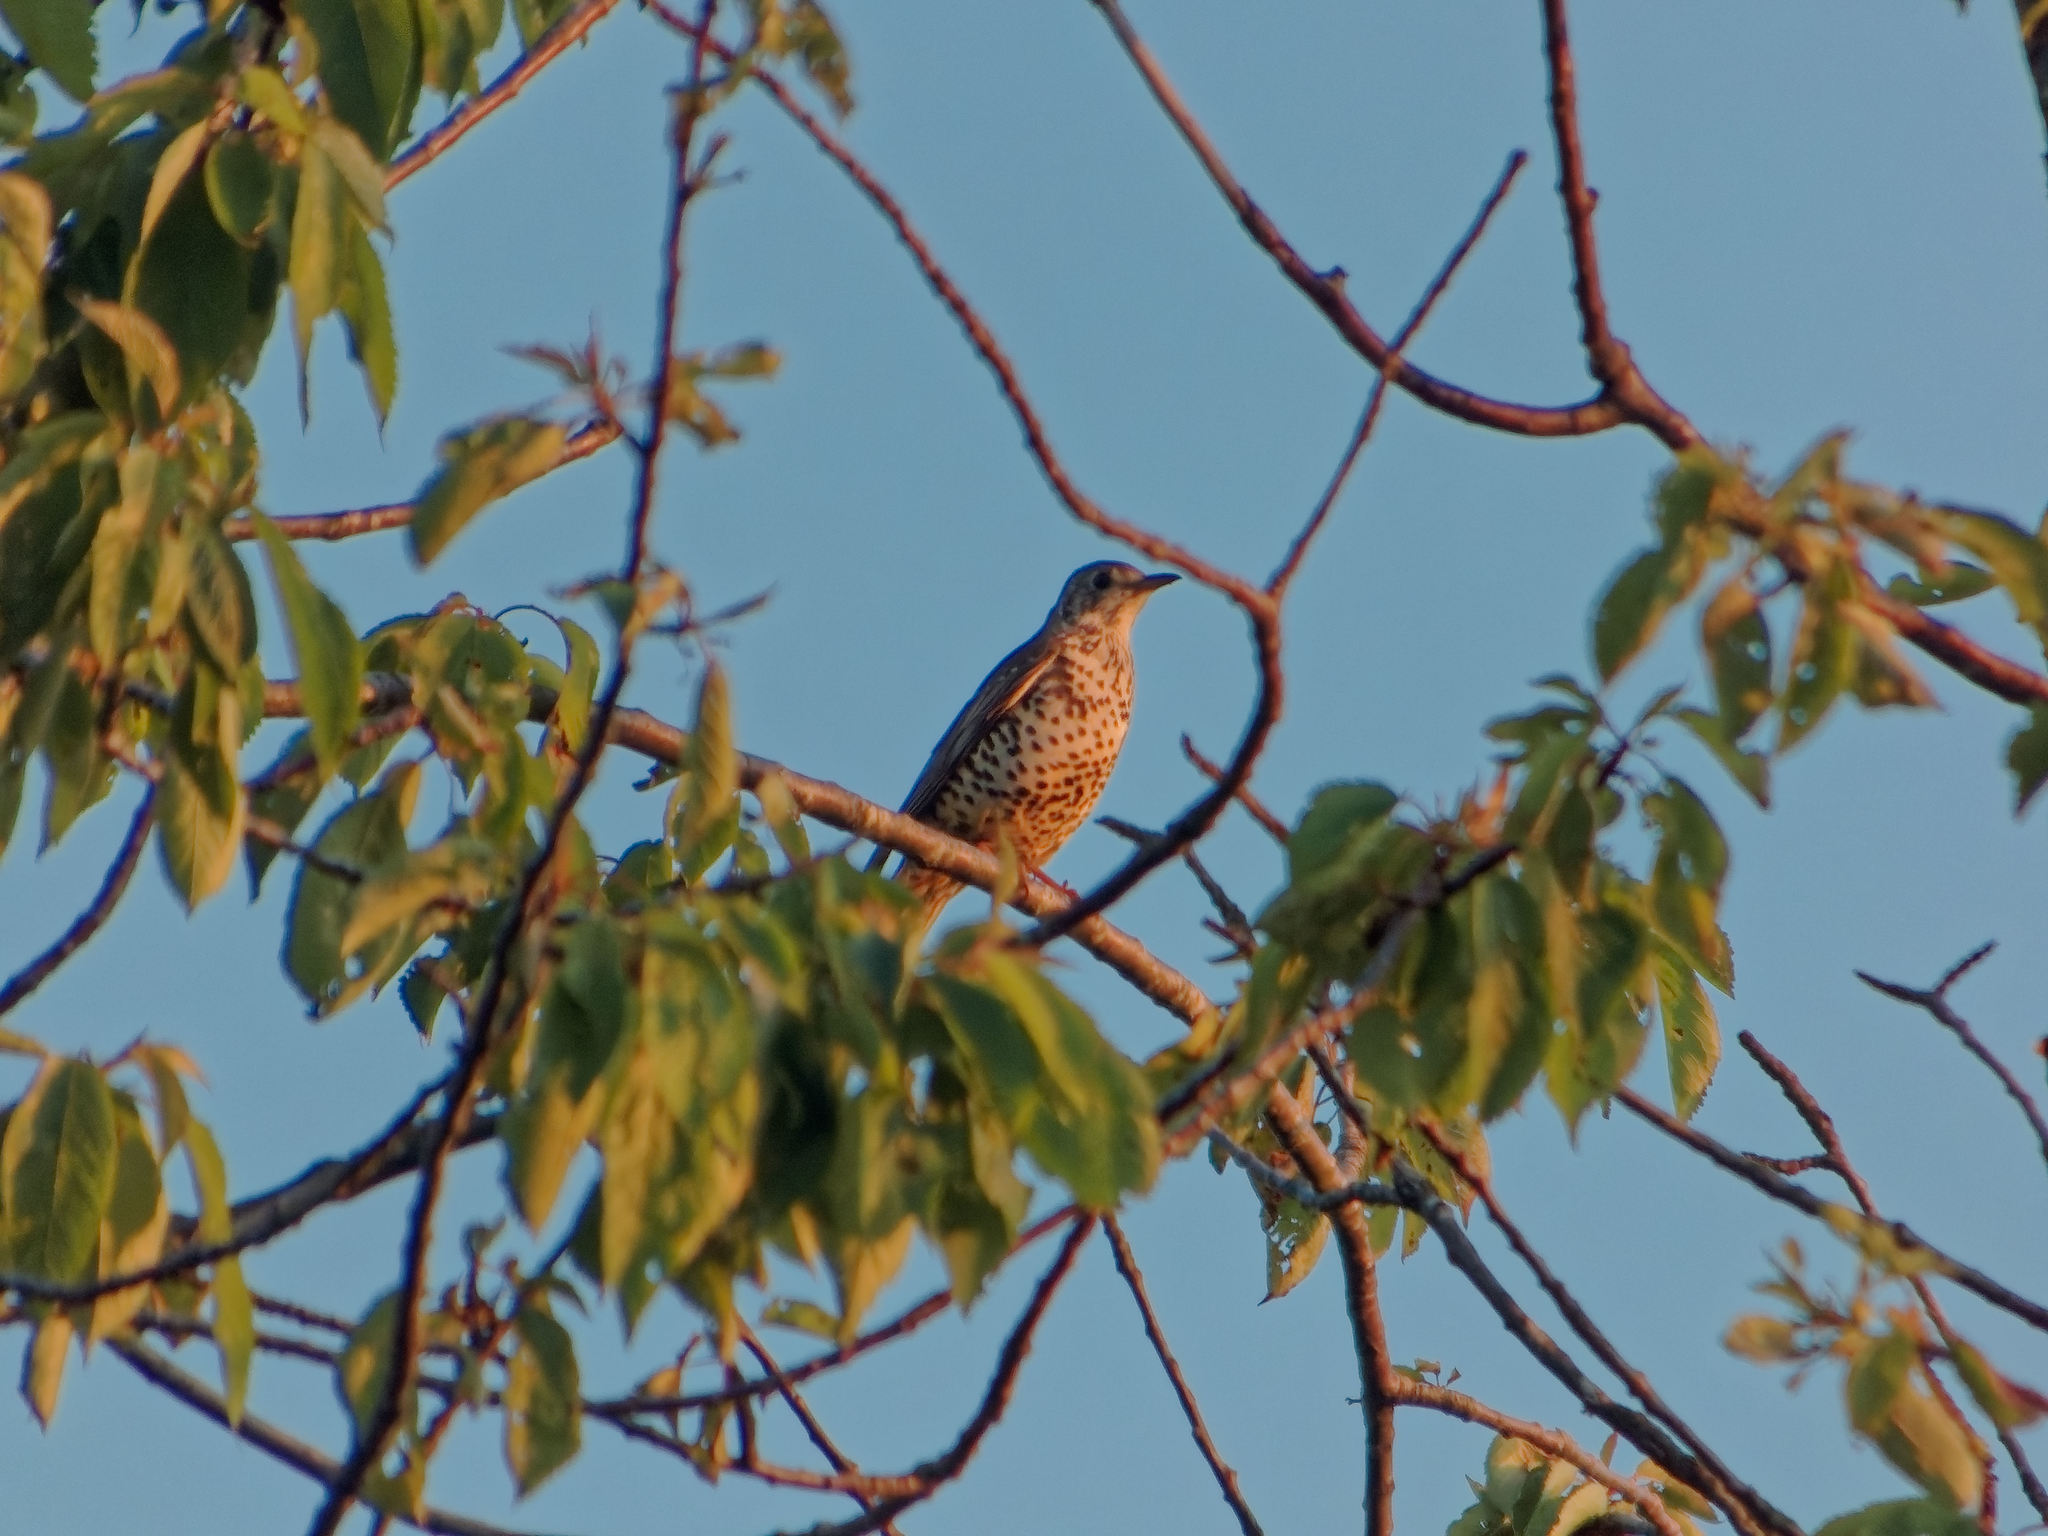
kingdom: Animalia
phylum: Chordata
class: Aves
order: Passeriformes
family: Turdidae
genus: Turdus
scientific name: Turdus viscivorus
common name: Mistle thrush
